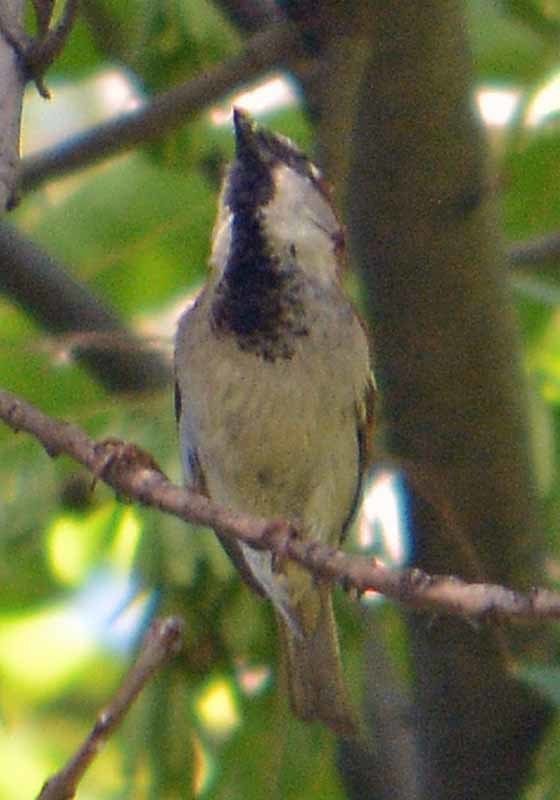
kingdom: Animalia
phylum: Chordata
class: Aves
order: Passeriformes
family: Passeridae
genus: Passer
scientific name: Passer domesticus
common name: House sparrow
